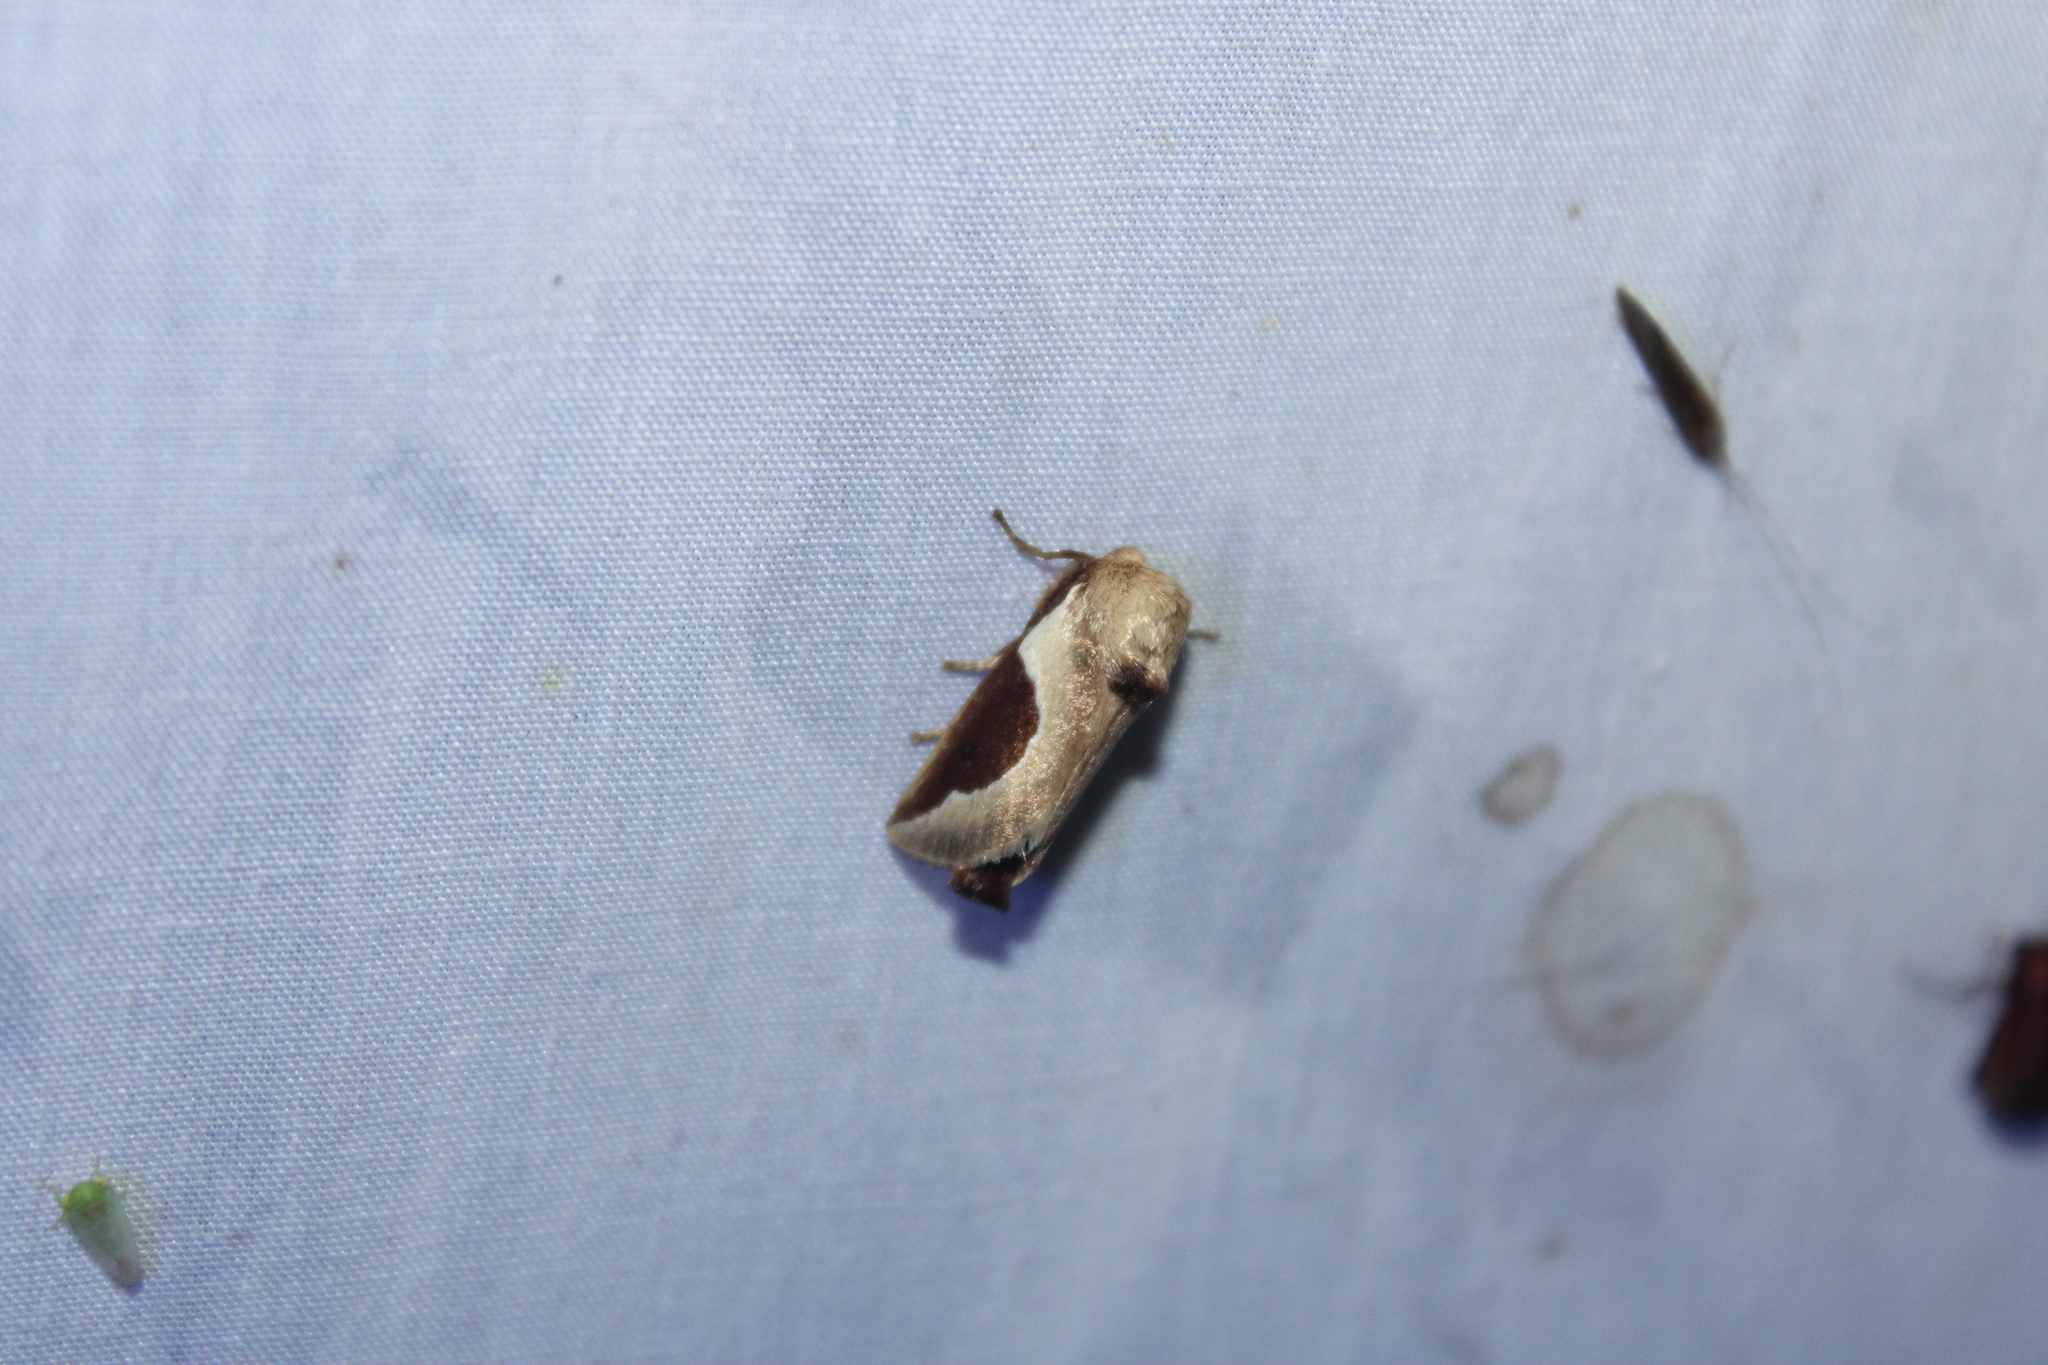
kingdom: Animalia
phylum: Arthropoda
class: Insecta
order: Lepidoptera
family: Limacodidae
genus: Prolimacodes
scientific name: Prolimacodes badia
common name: Skiff moth
